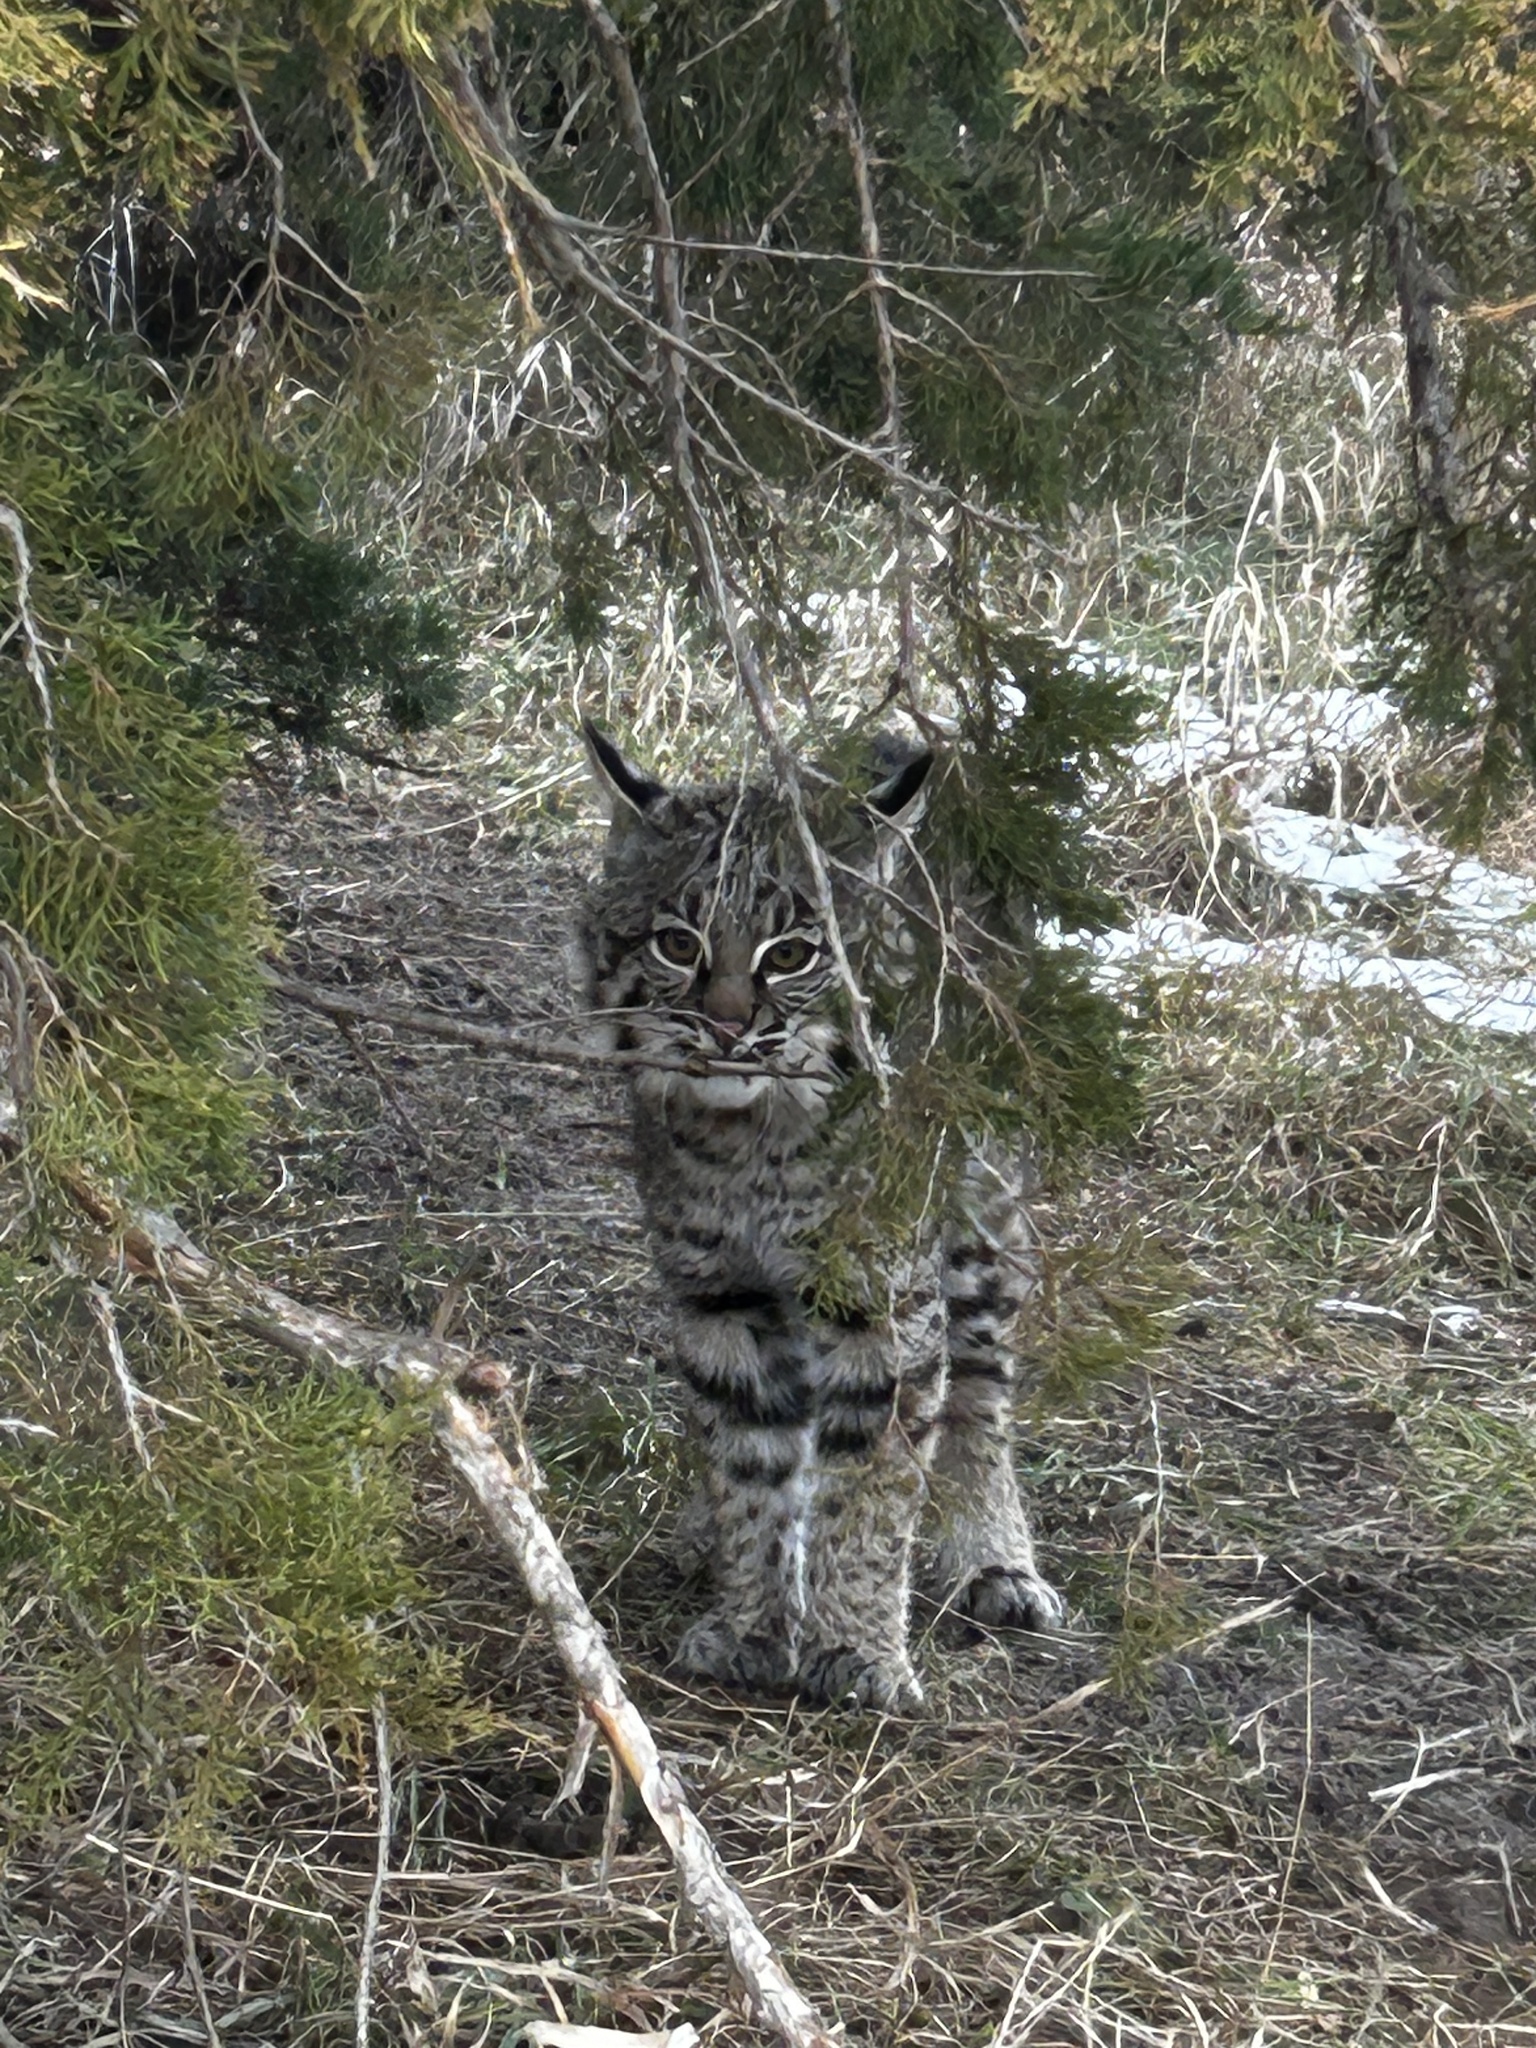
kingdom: Animalia
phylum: Chordata
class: Mammalia
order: Carnivora
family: Felidae
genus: Lynx
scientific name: Lynx rufus
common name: Bobcat
